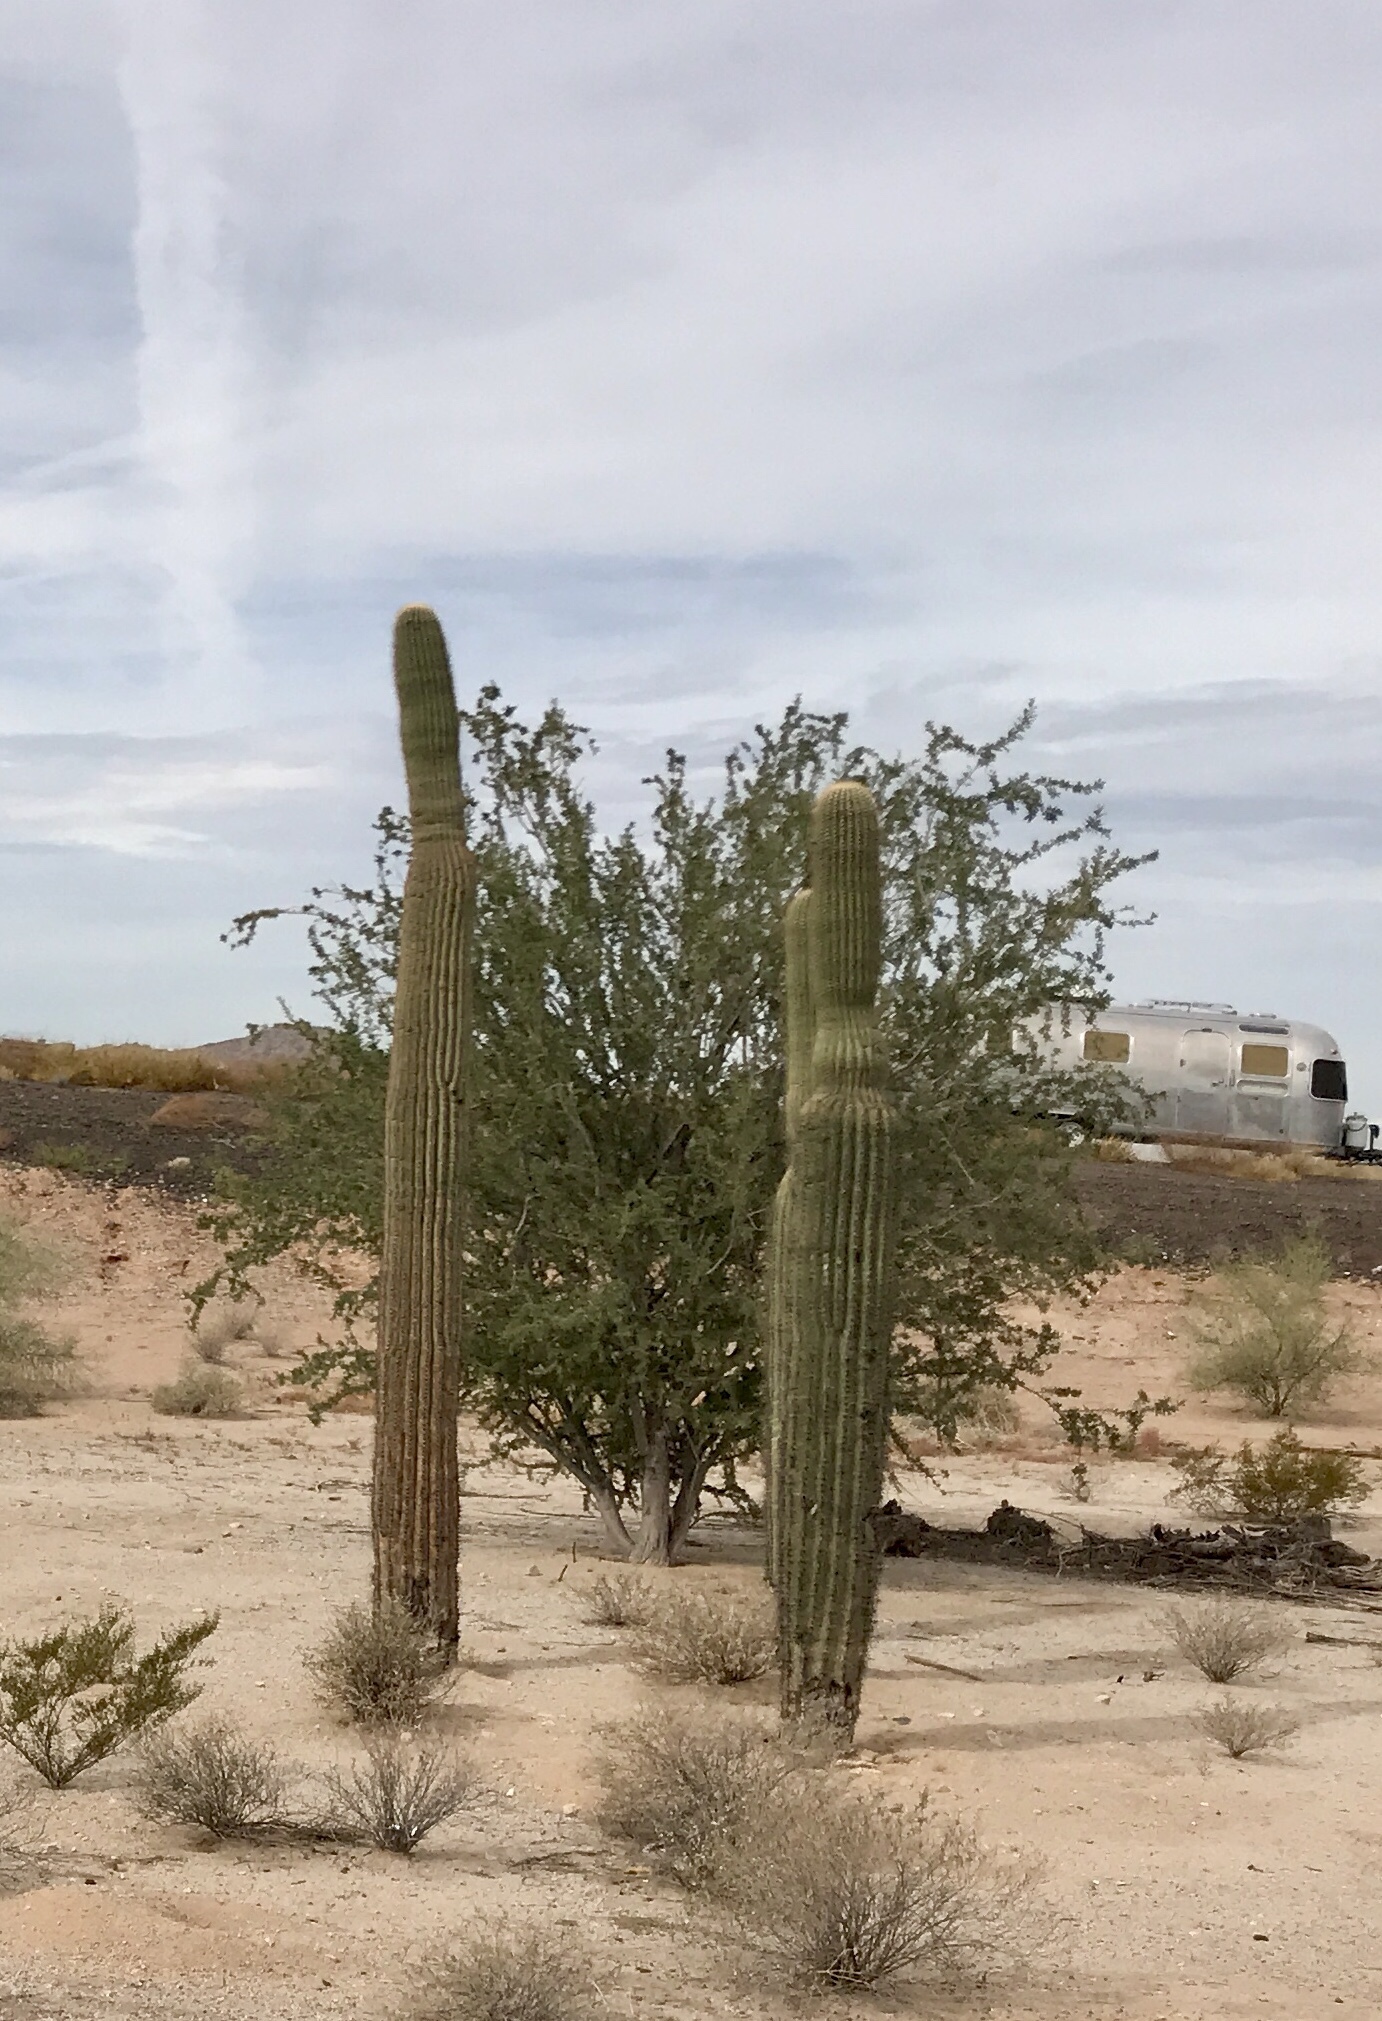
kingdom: Plantae
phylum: Tracheophyta
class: Magnoliopsida
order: Caryophyllales
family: Cactaceae
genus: Carnegiea
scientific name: Carnegiea gigantea
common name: Saguaro
